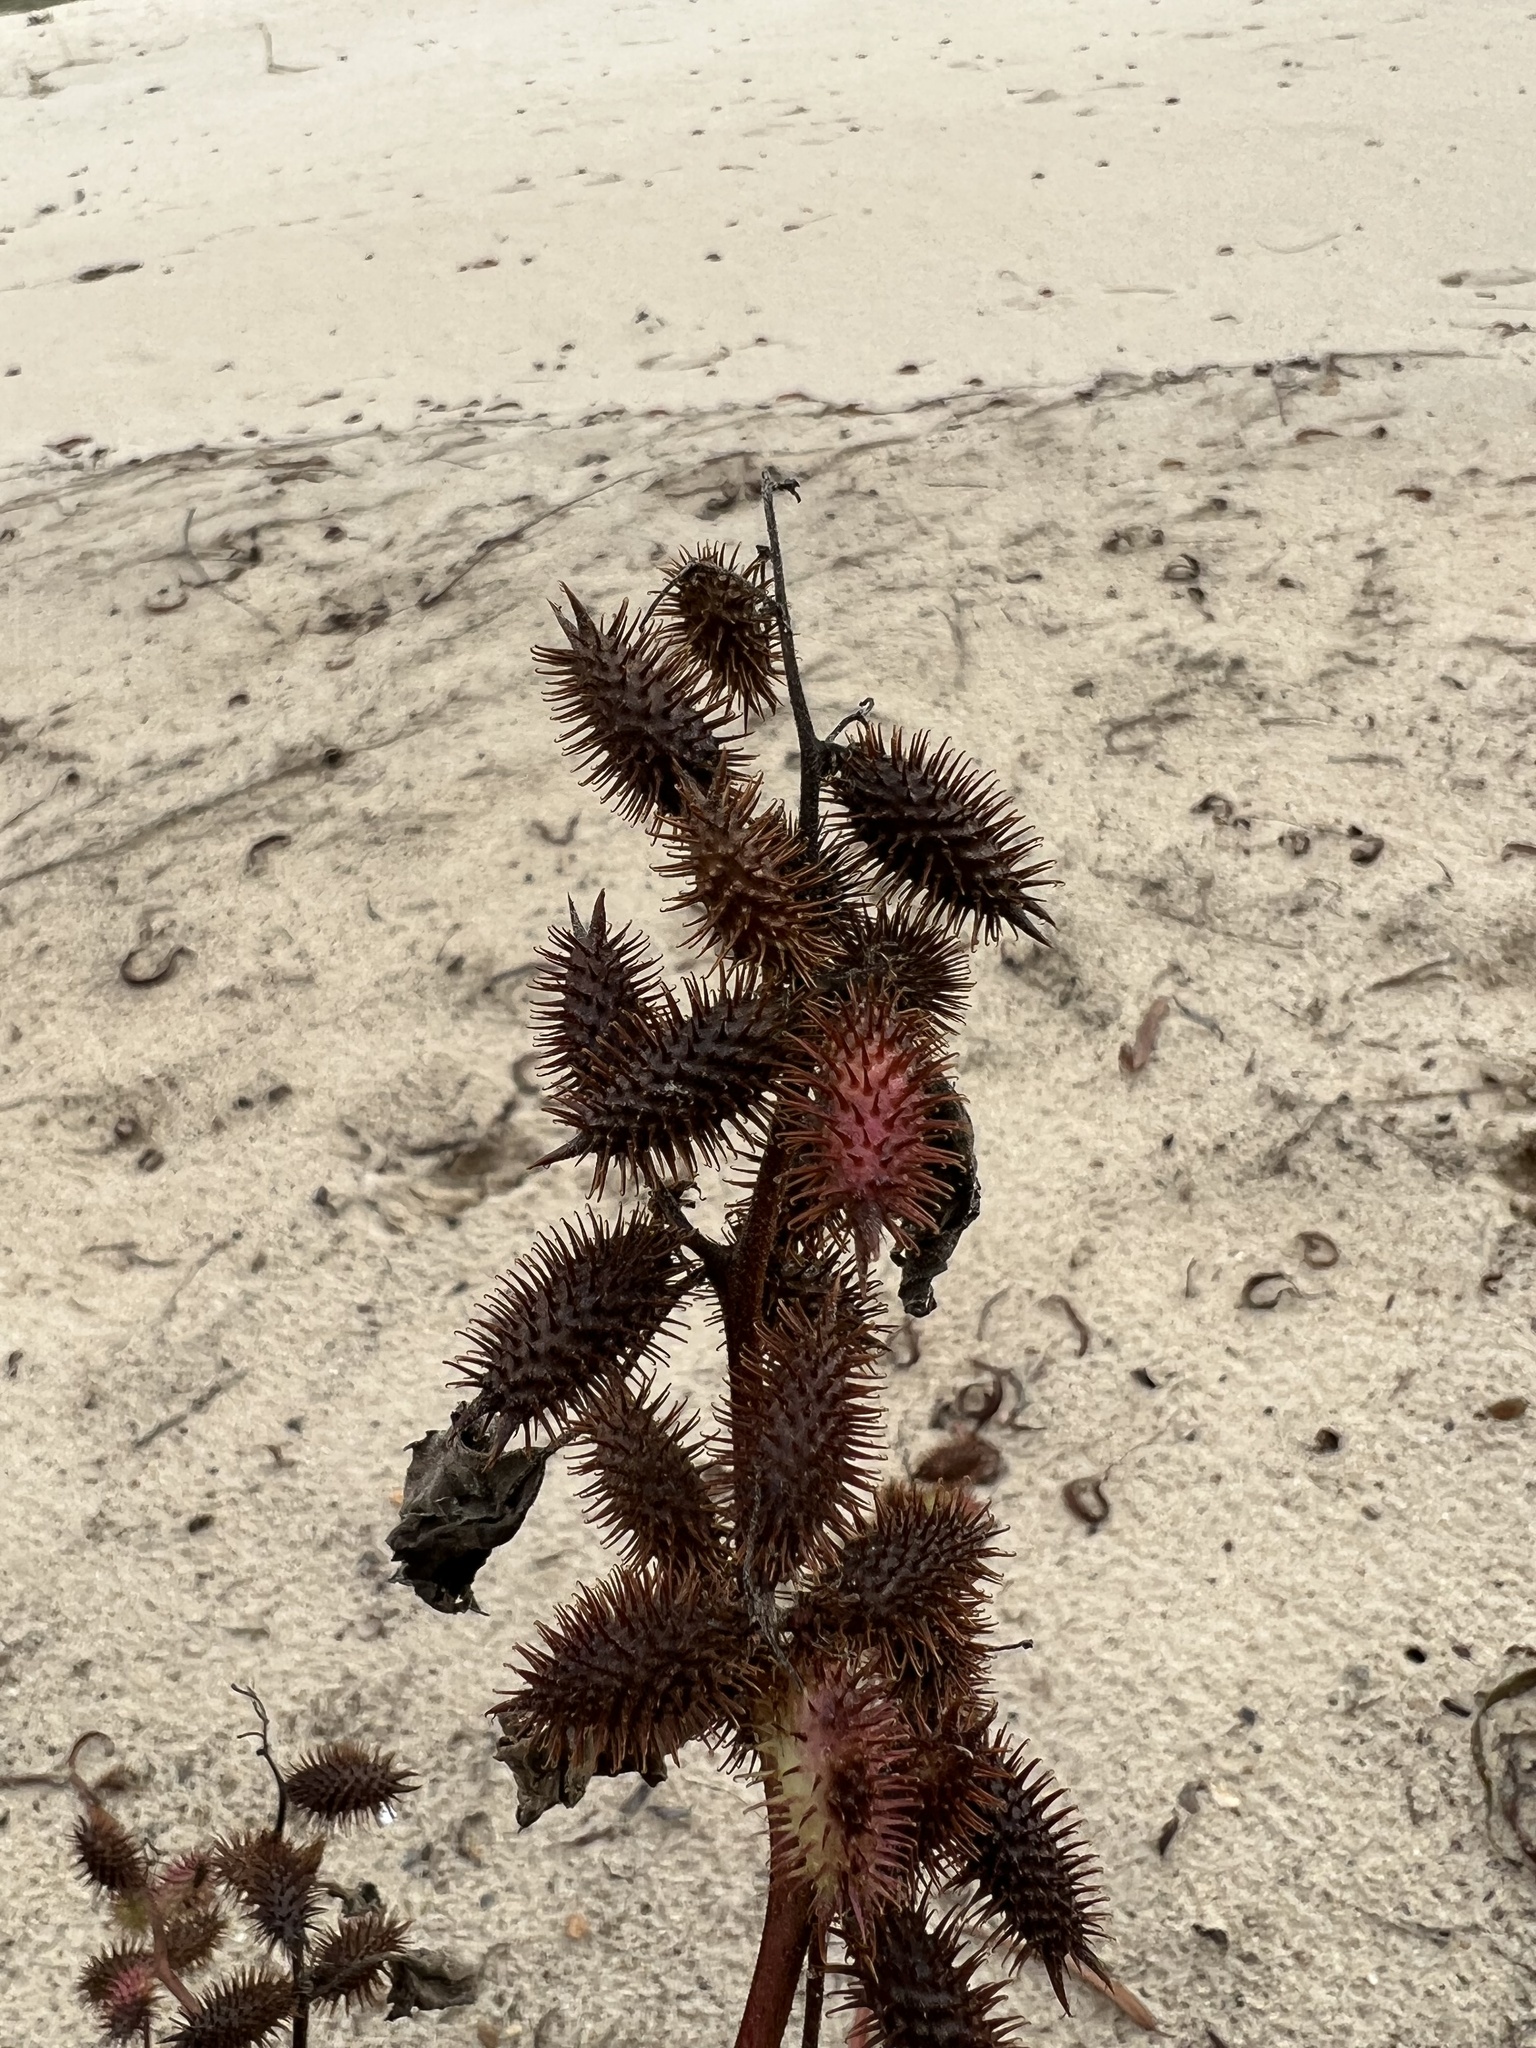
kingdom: Plantae
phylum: Tracheophyta
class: Magnoliopsida
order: Asterales
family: Asteraceae
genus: Xanthium
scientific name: Xanthium strumarium
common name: Rough cocklebur
